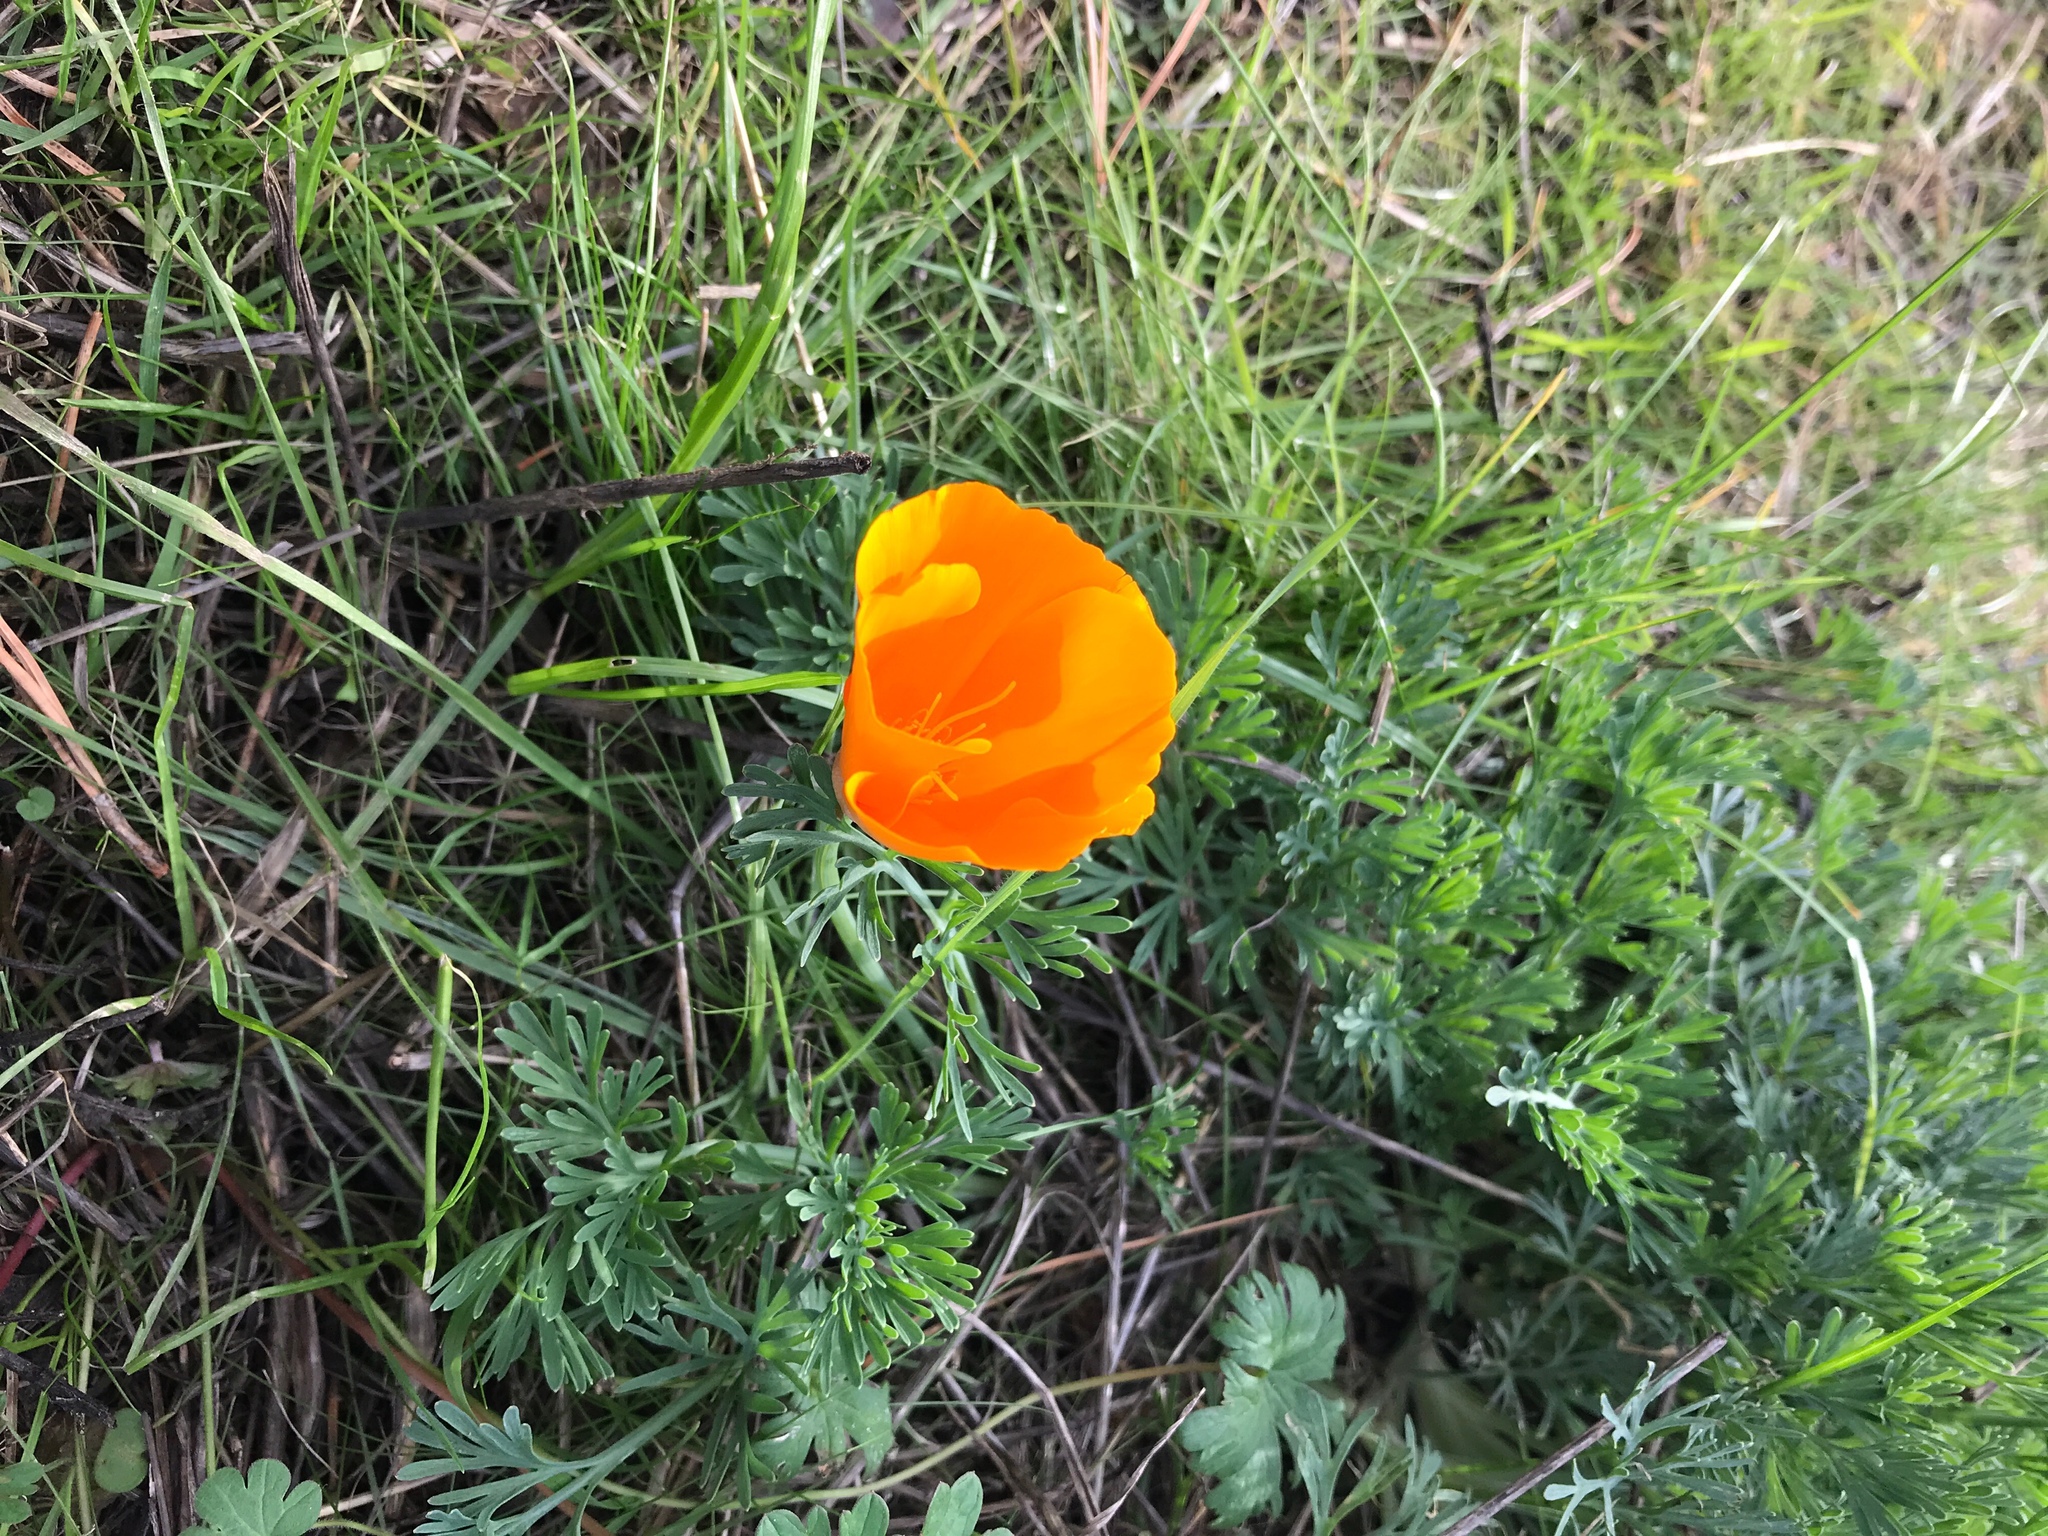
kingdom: Plantae
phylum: Tracheophyta
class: Magnoliopsida
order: Ranunculales
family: Papaveraceae
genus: Eschscholzia
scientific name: Eschscholzia californica
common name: California poppy
